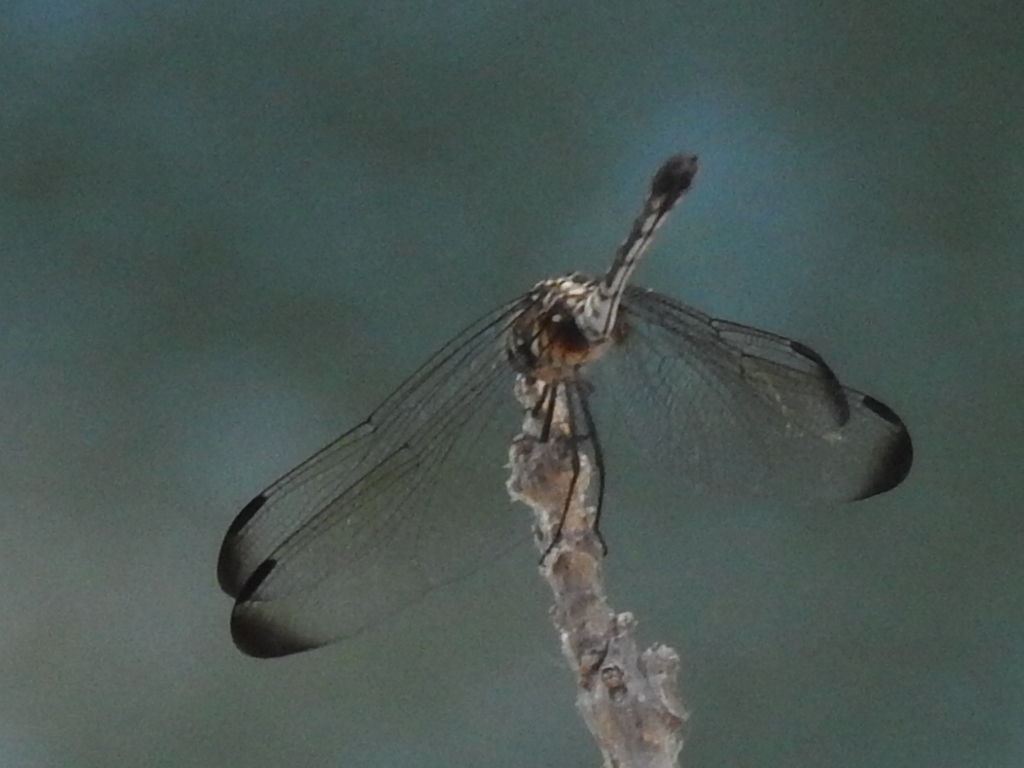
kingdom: Animalia
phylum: Arthropoda
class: Insecta
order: Odonata
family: Libellulidae
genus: Dythemis
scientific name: Dythemis velox
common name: Swift setwing
